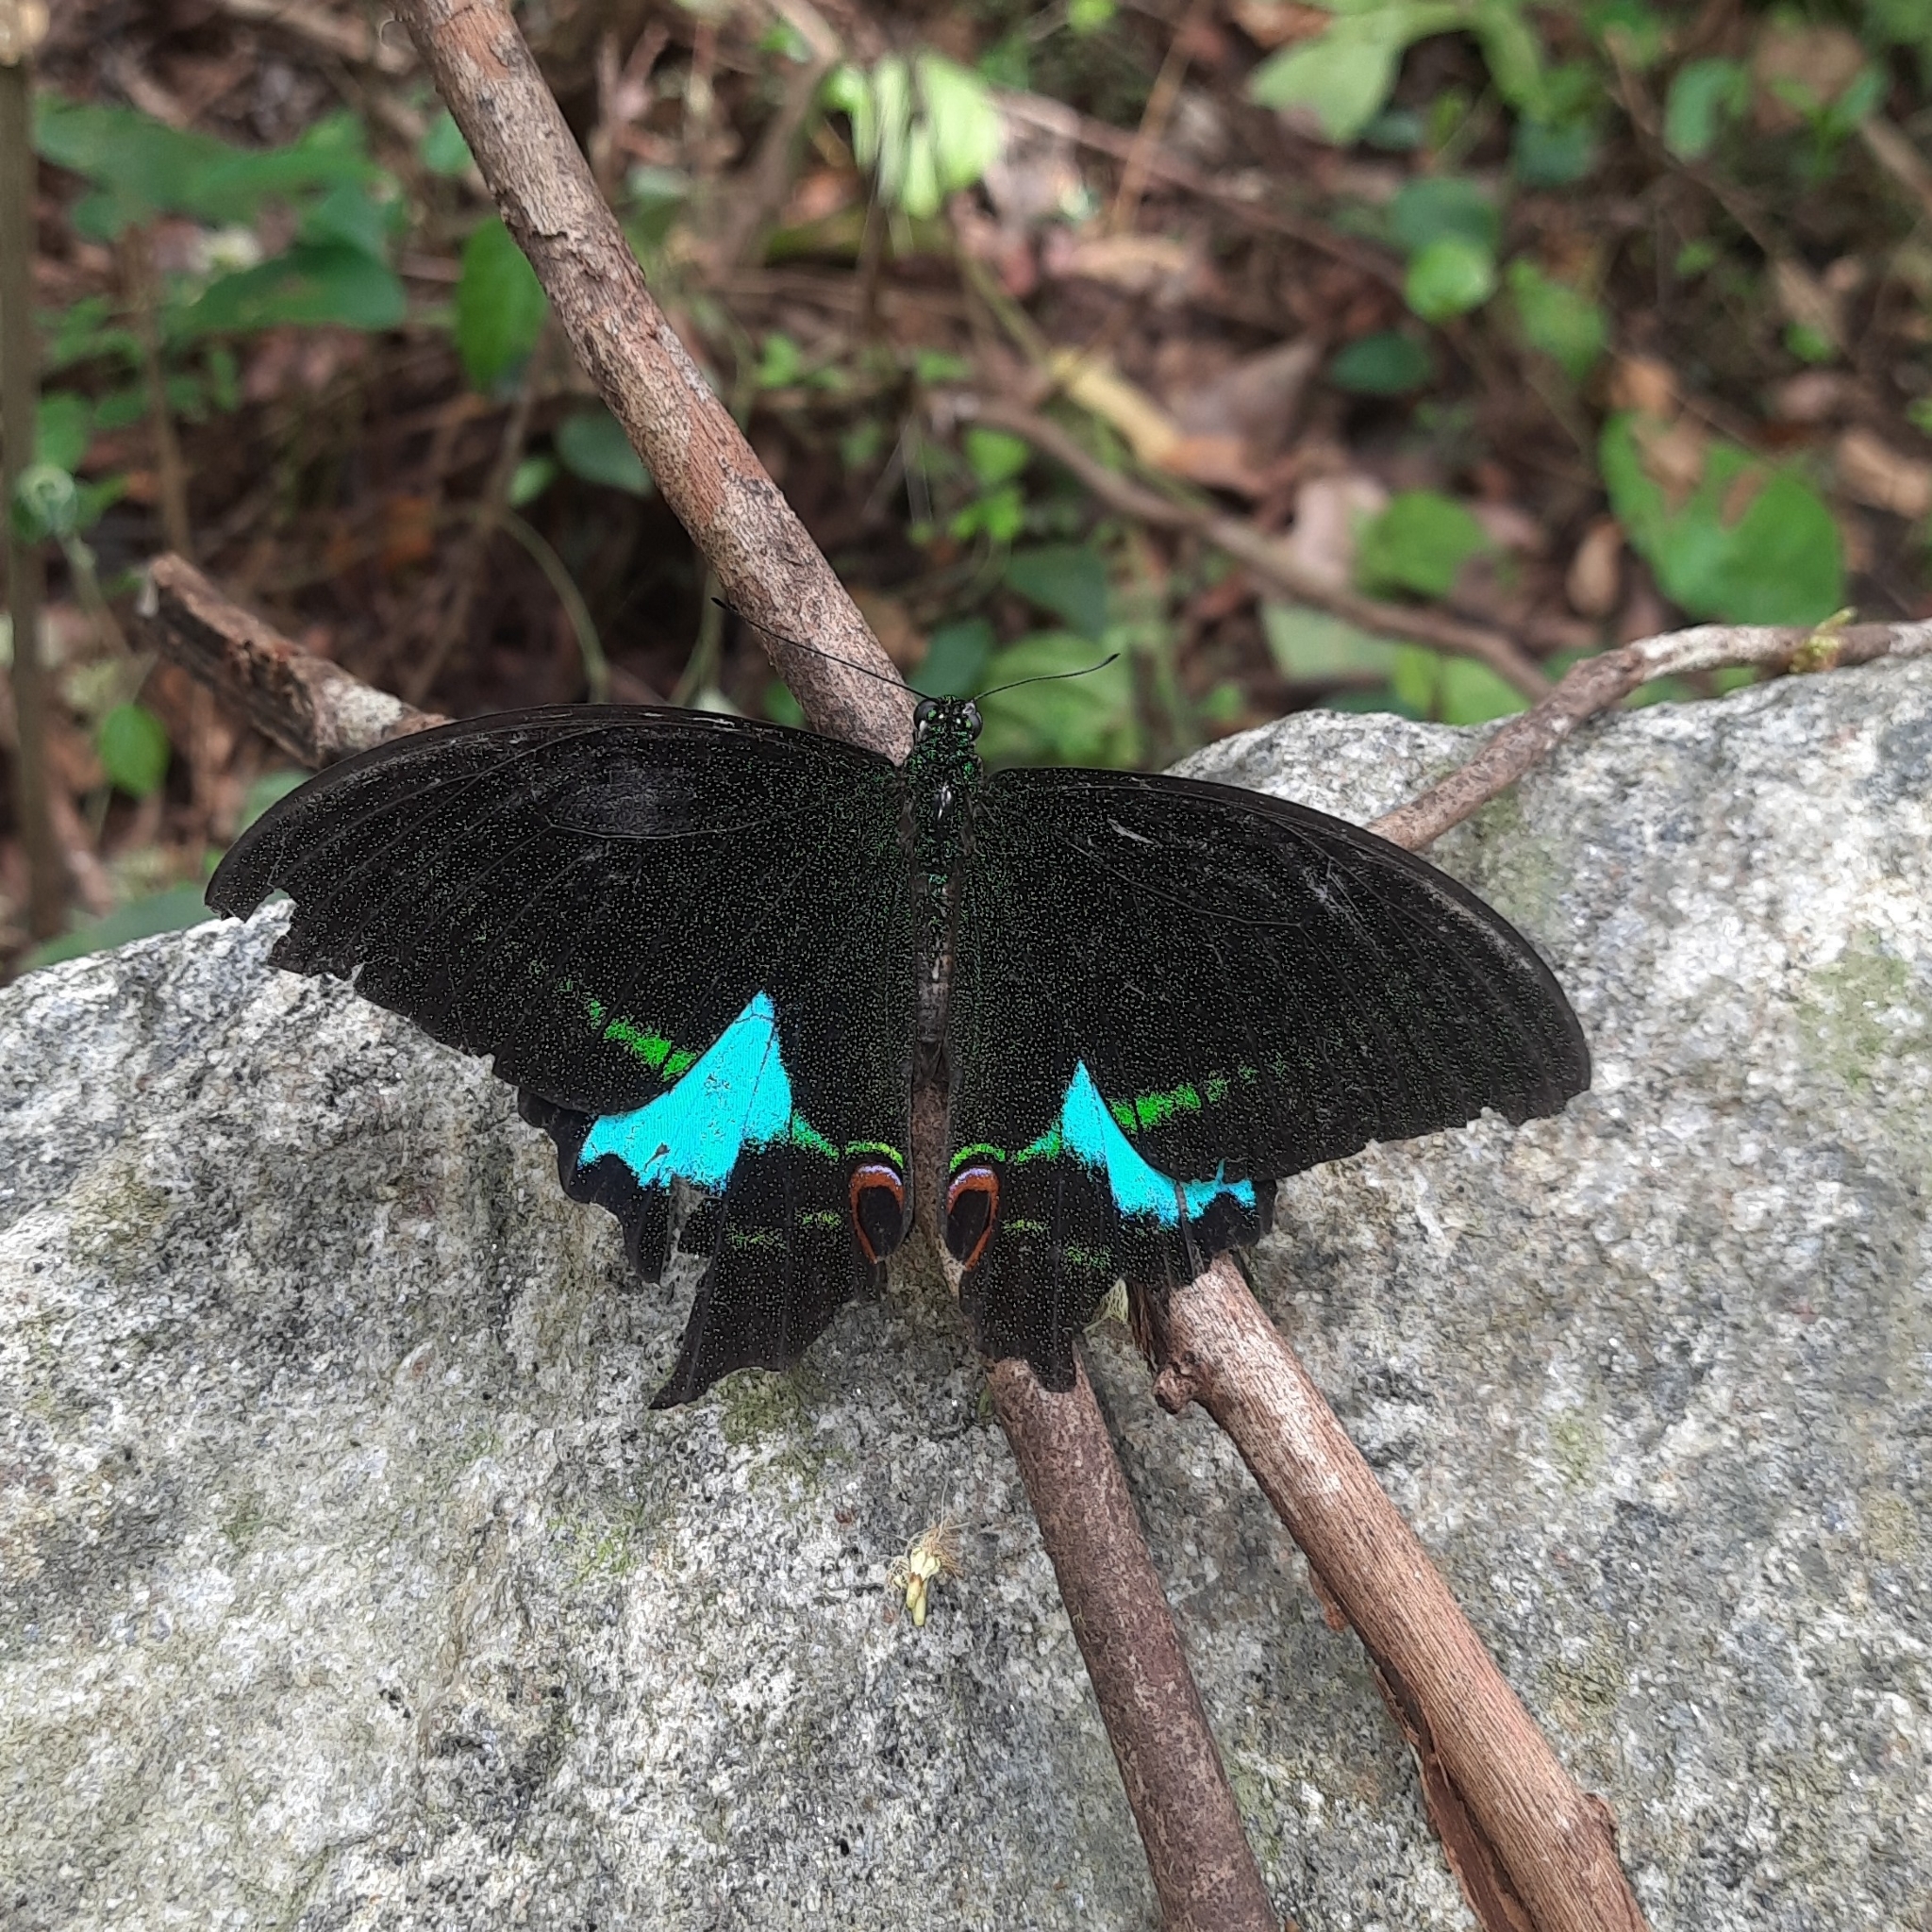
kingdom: Animalia
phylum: Arthropoda
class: Insecta
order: Lepidoptera
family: Papilionidae
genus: Papilio
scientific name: Papilio paris
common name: Paris peacock
